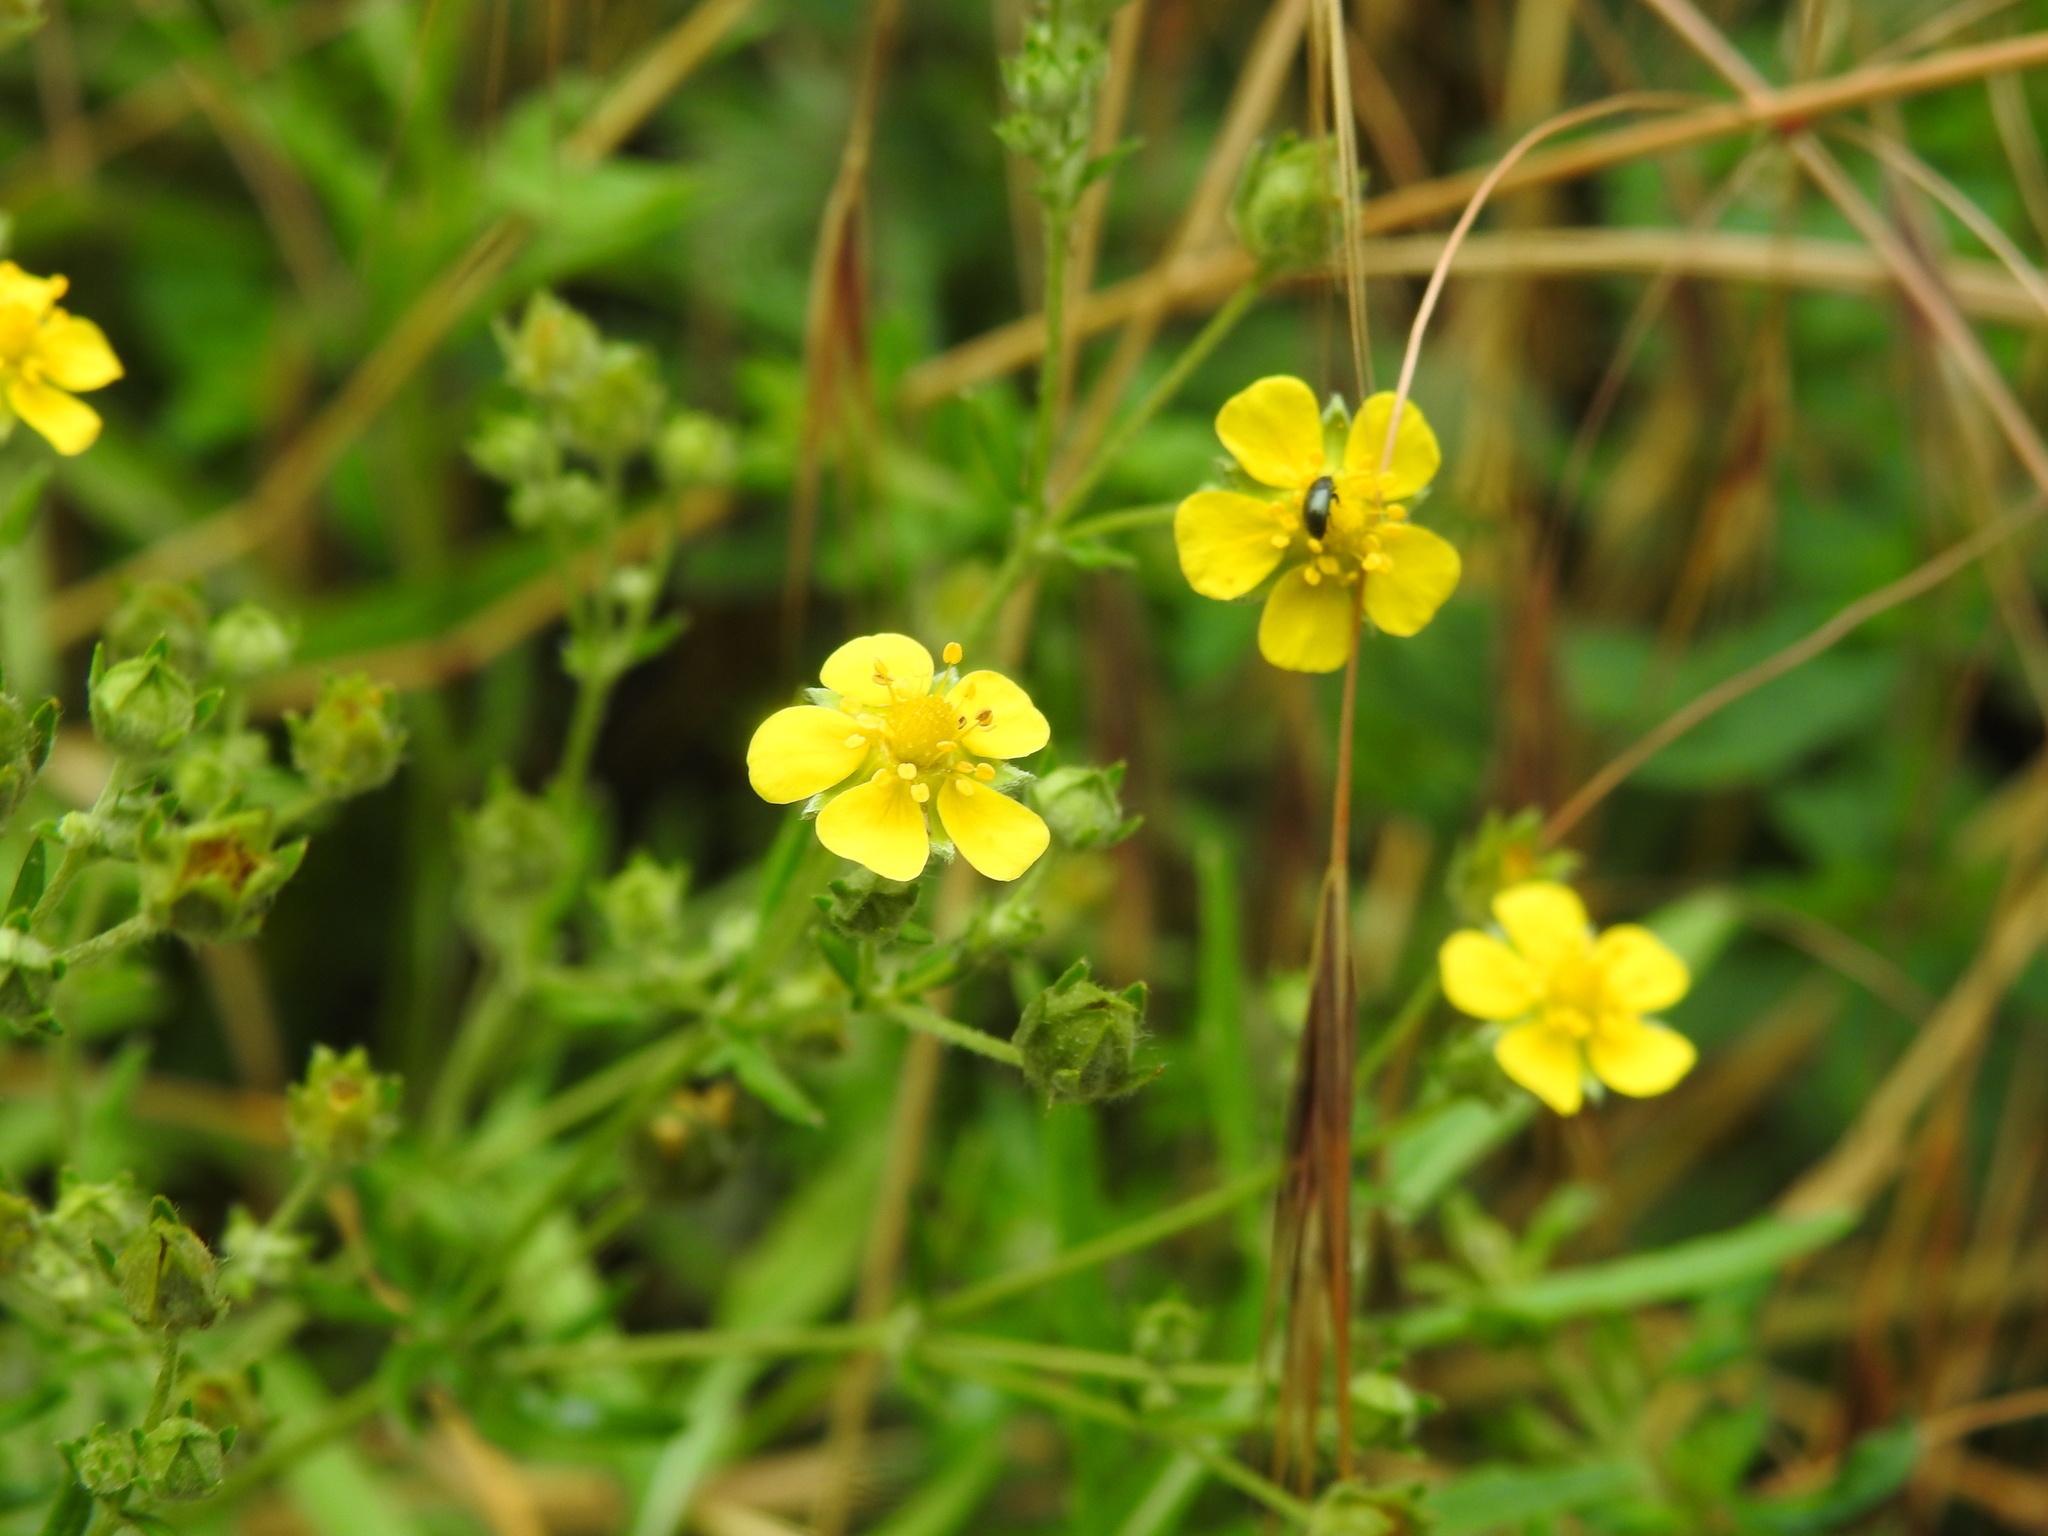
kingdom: Plantae
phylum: Tracheophyta
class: Magnoliopsida
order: Rosales
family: Rosaceae
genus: Potentilla
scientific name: Potentilla argentea
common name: Hoary cinquefoil
